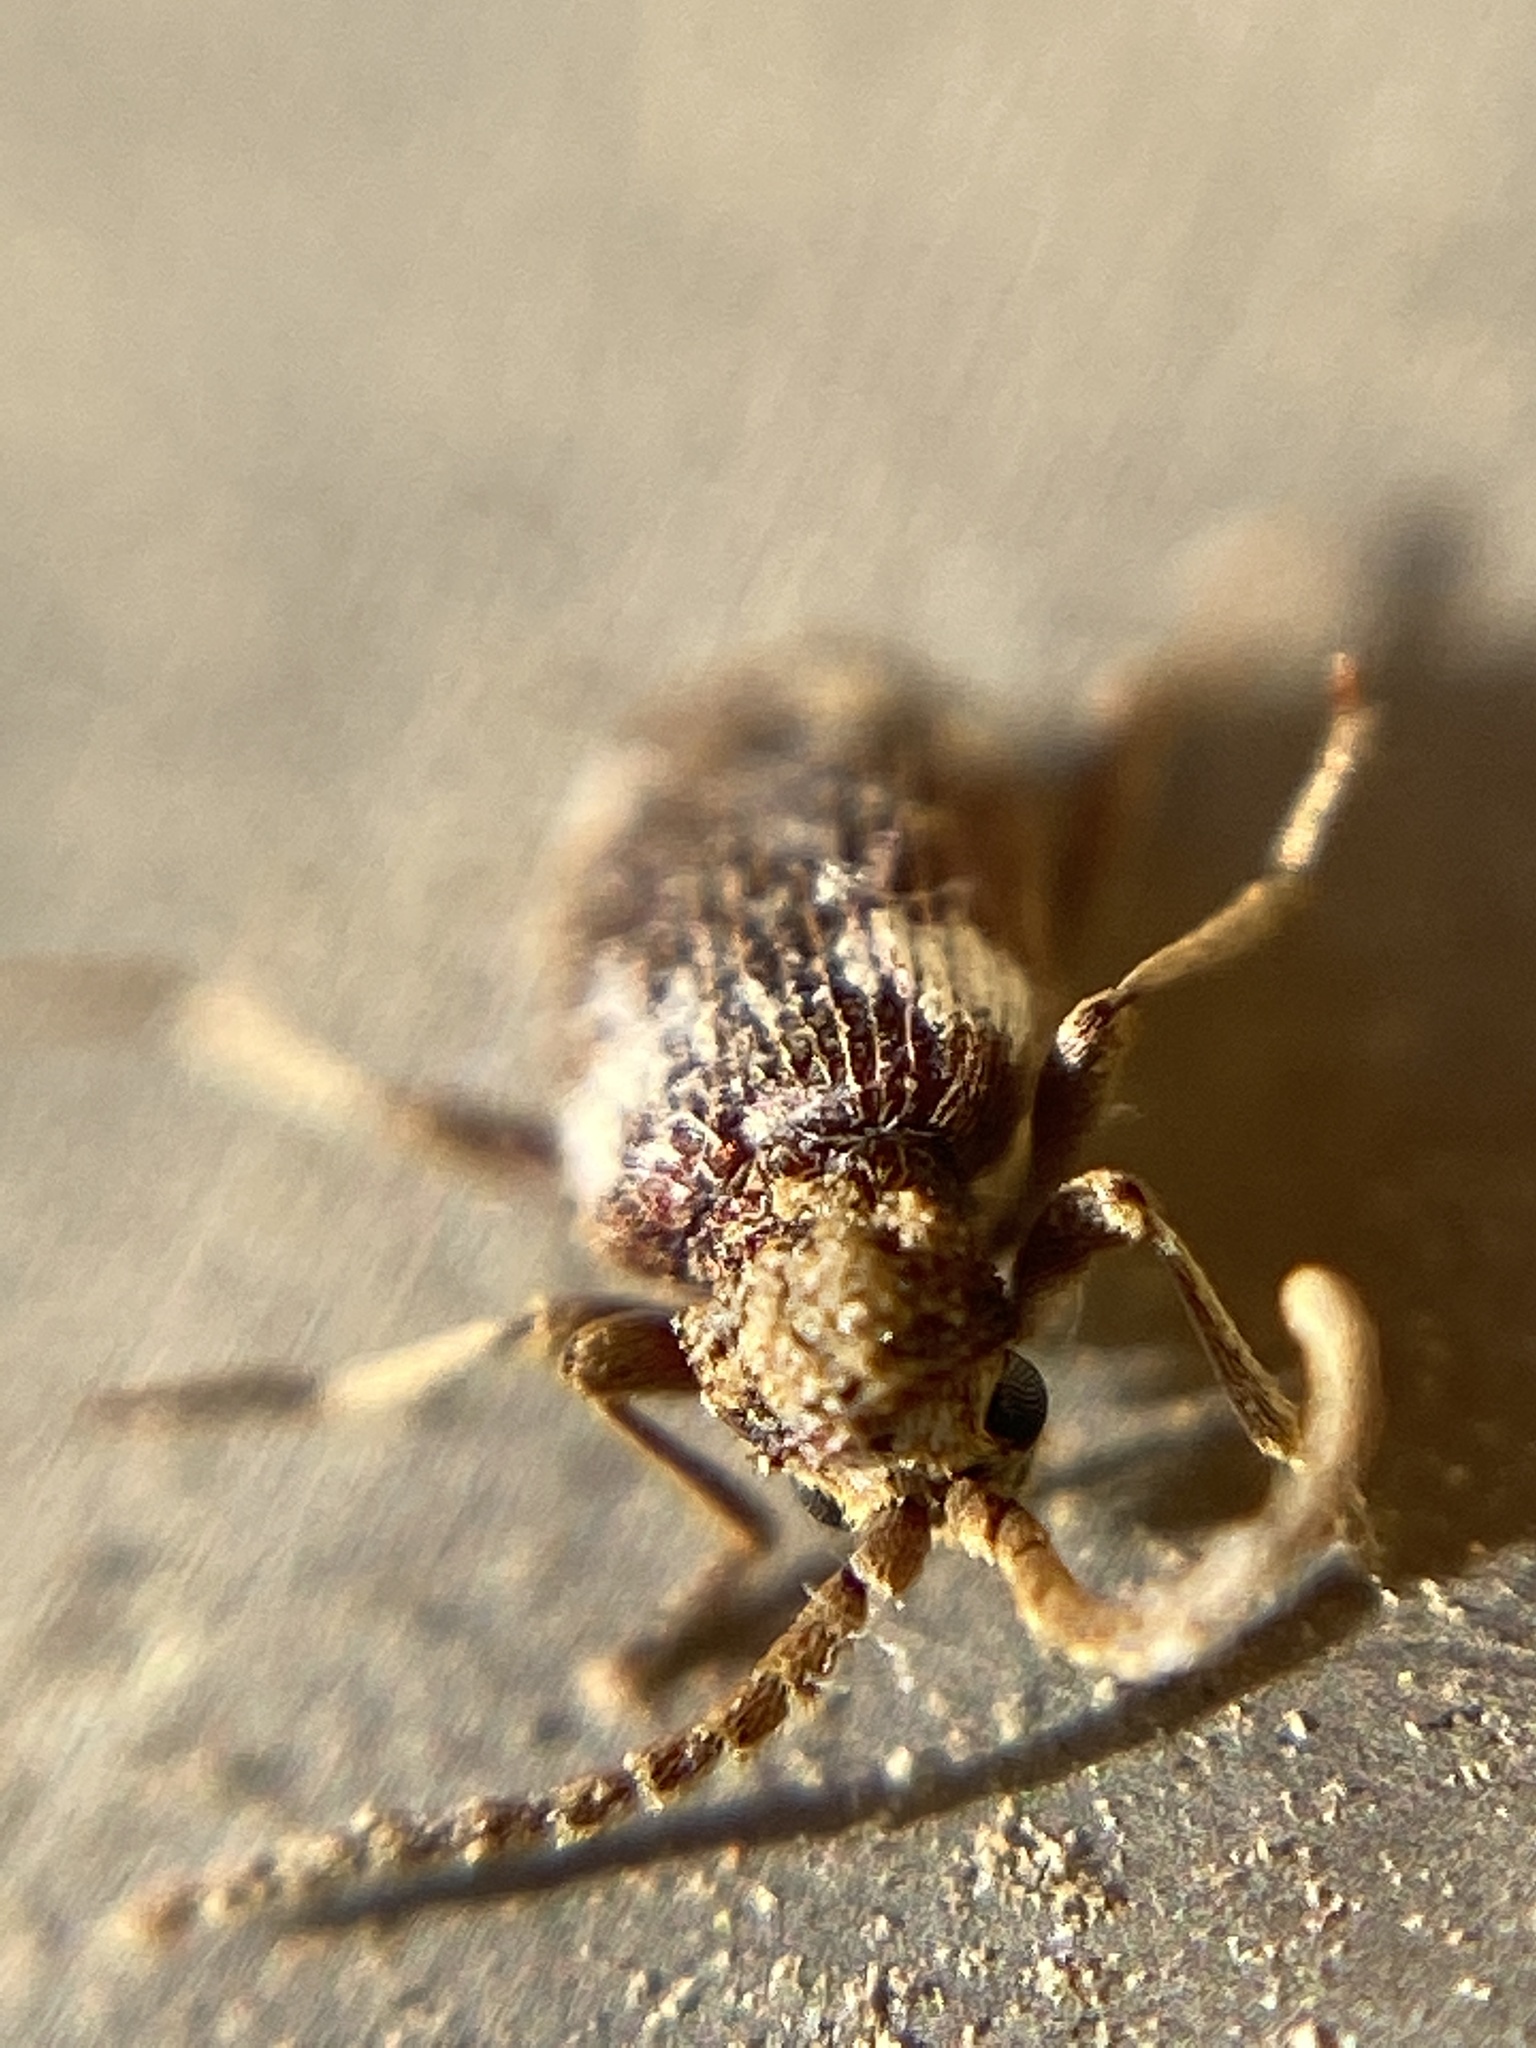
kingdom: Animalia
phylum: Arthropoda
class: Insecta
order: Coleoptera
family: Ptinidae
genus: Ptinus
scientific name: Ptinus sexpunctatus
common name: Six-spotted spider beetle
